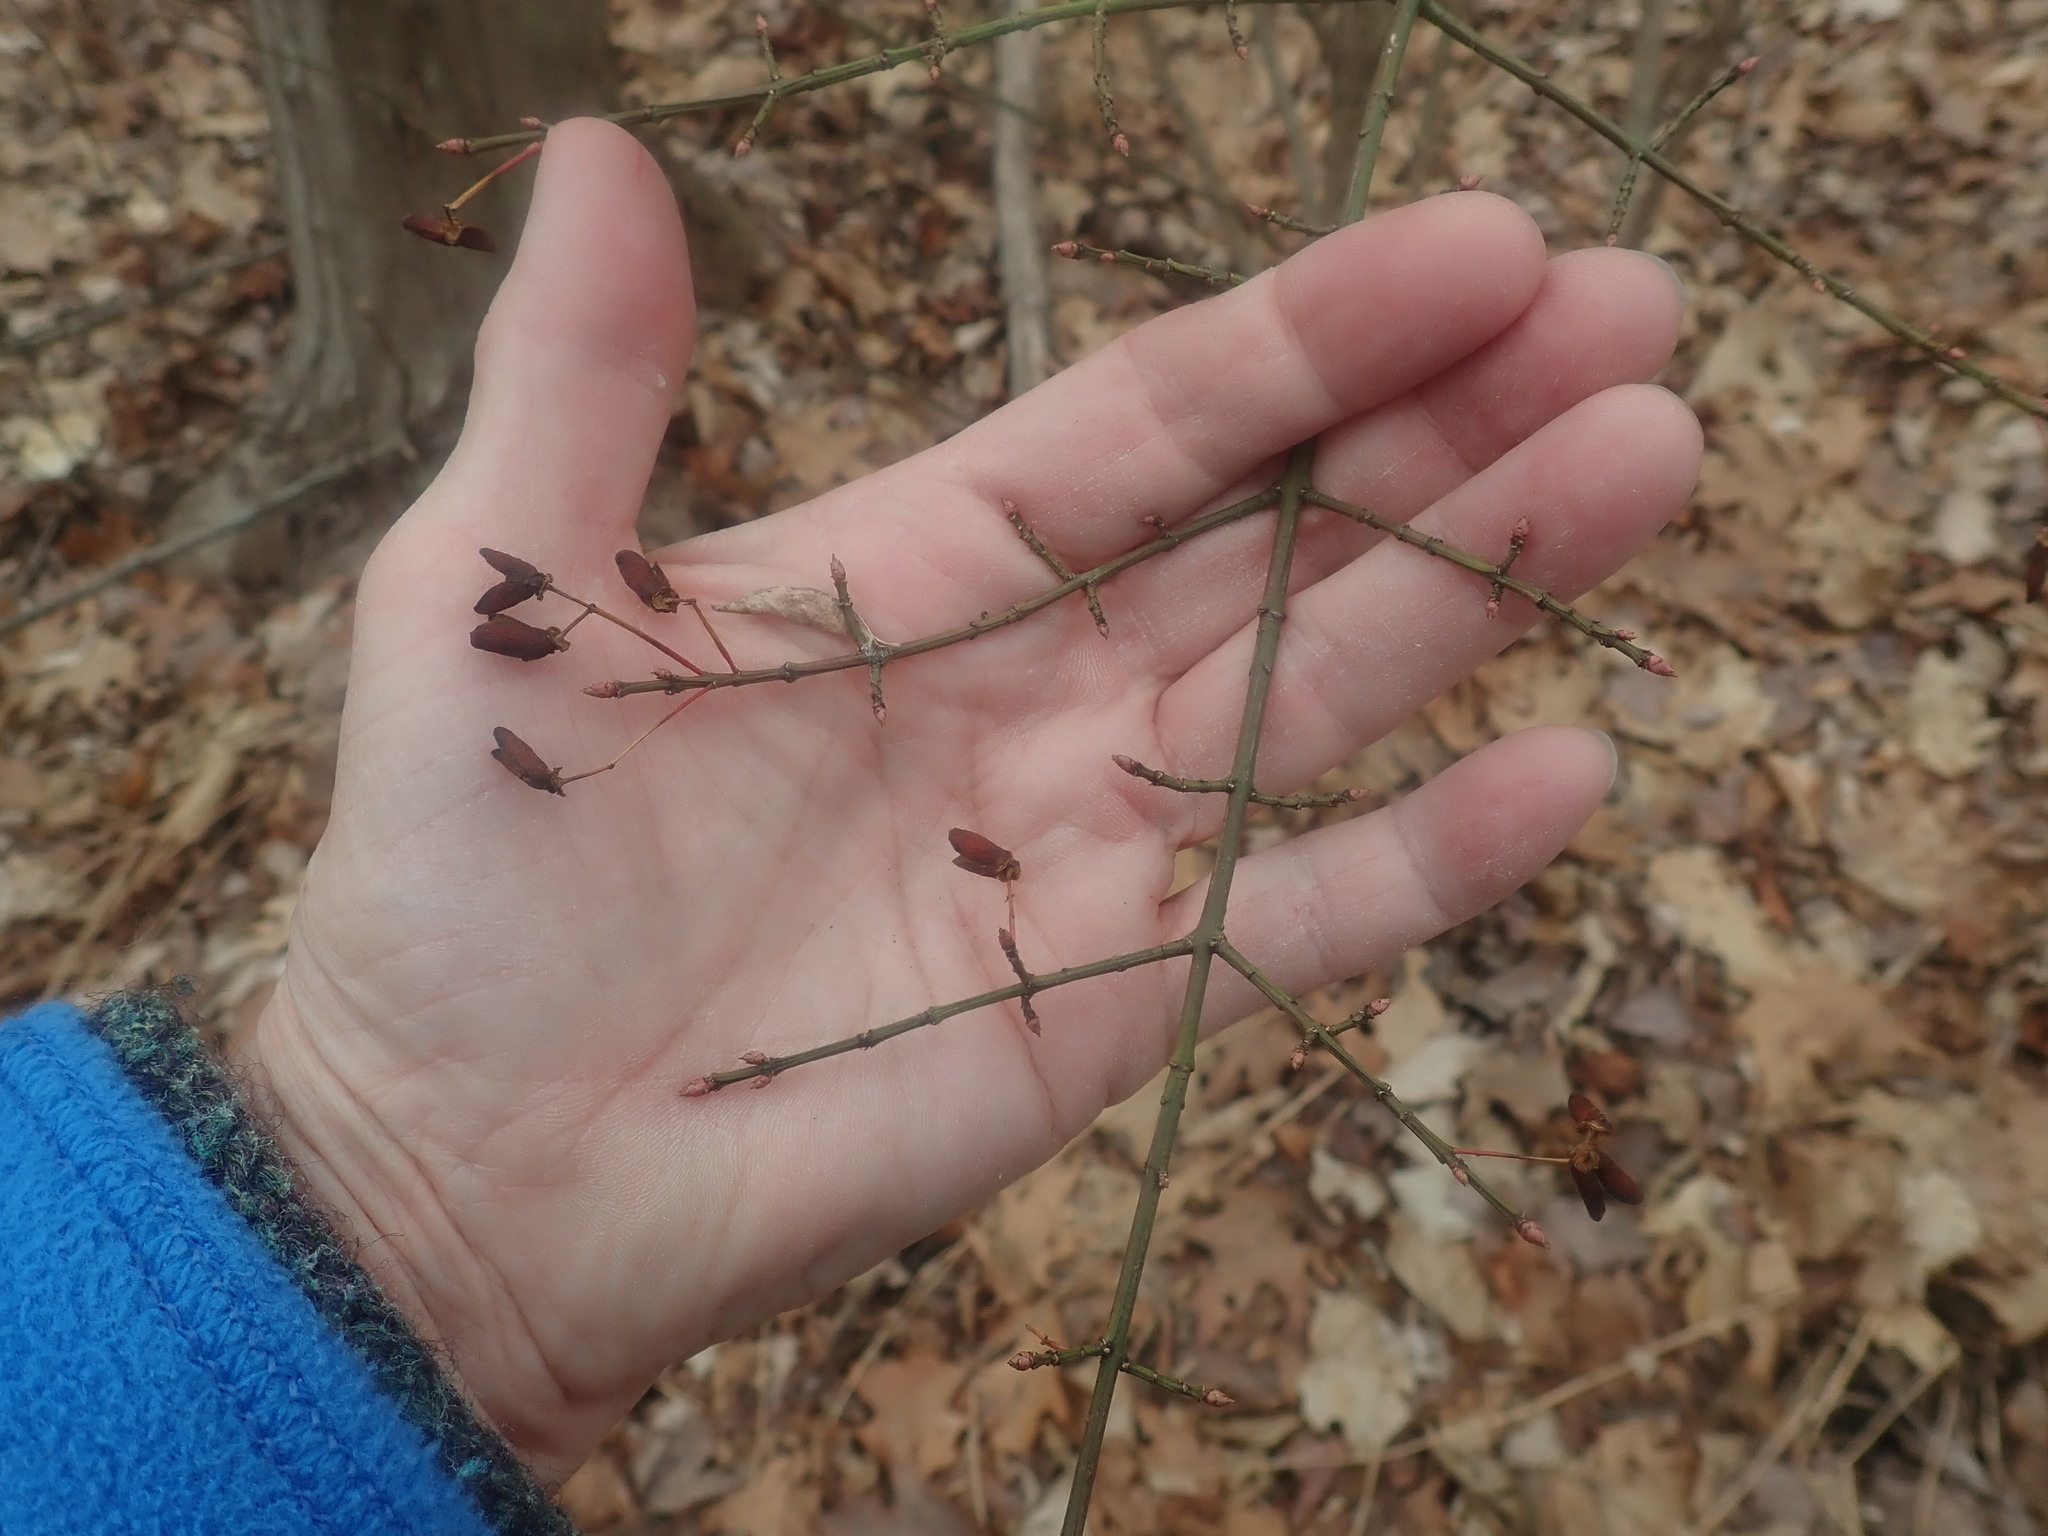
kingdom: Plantae
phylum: Tracheophyta
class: Magnoliopsida
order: Celastrales
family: Celastraceae
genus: Euonymus
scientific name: Euonymus alatus
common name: Winged euonymus
